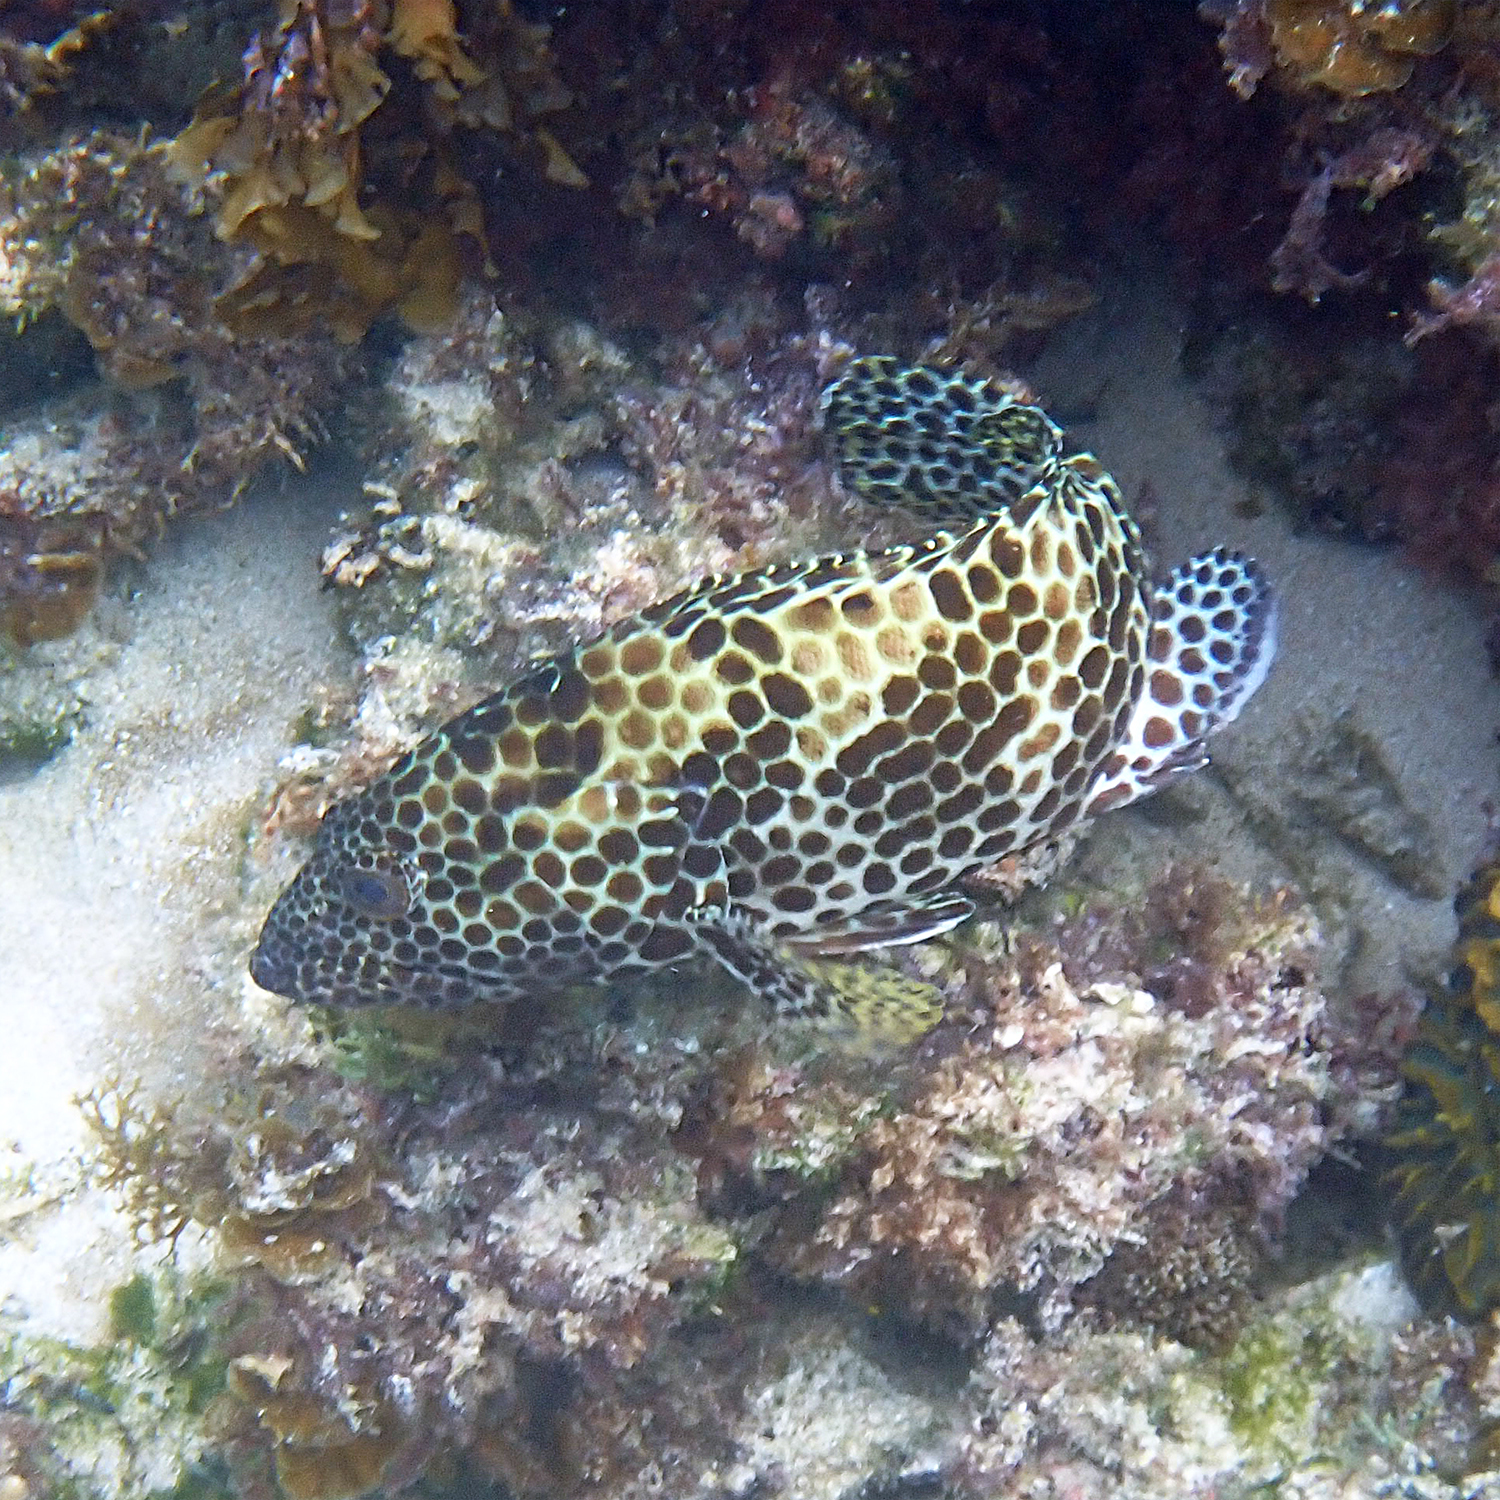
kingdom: Animalia
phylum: Chordata
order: Perciformes
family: Serranidae
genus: Epinephelus
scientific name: Epinephelus merra
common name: Honeycomb grouper
